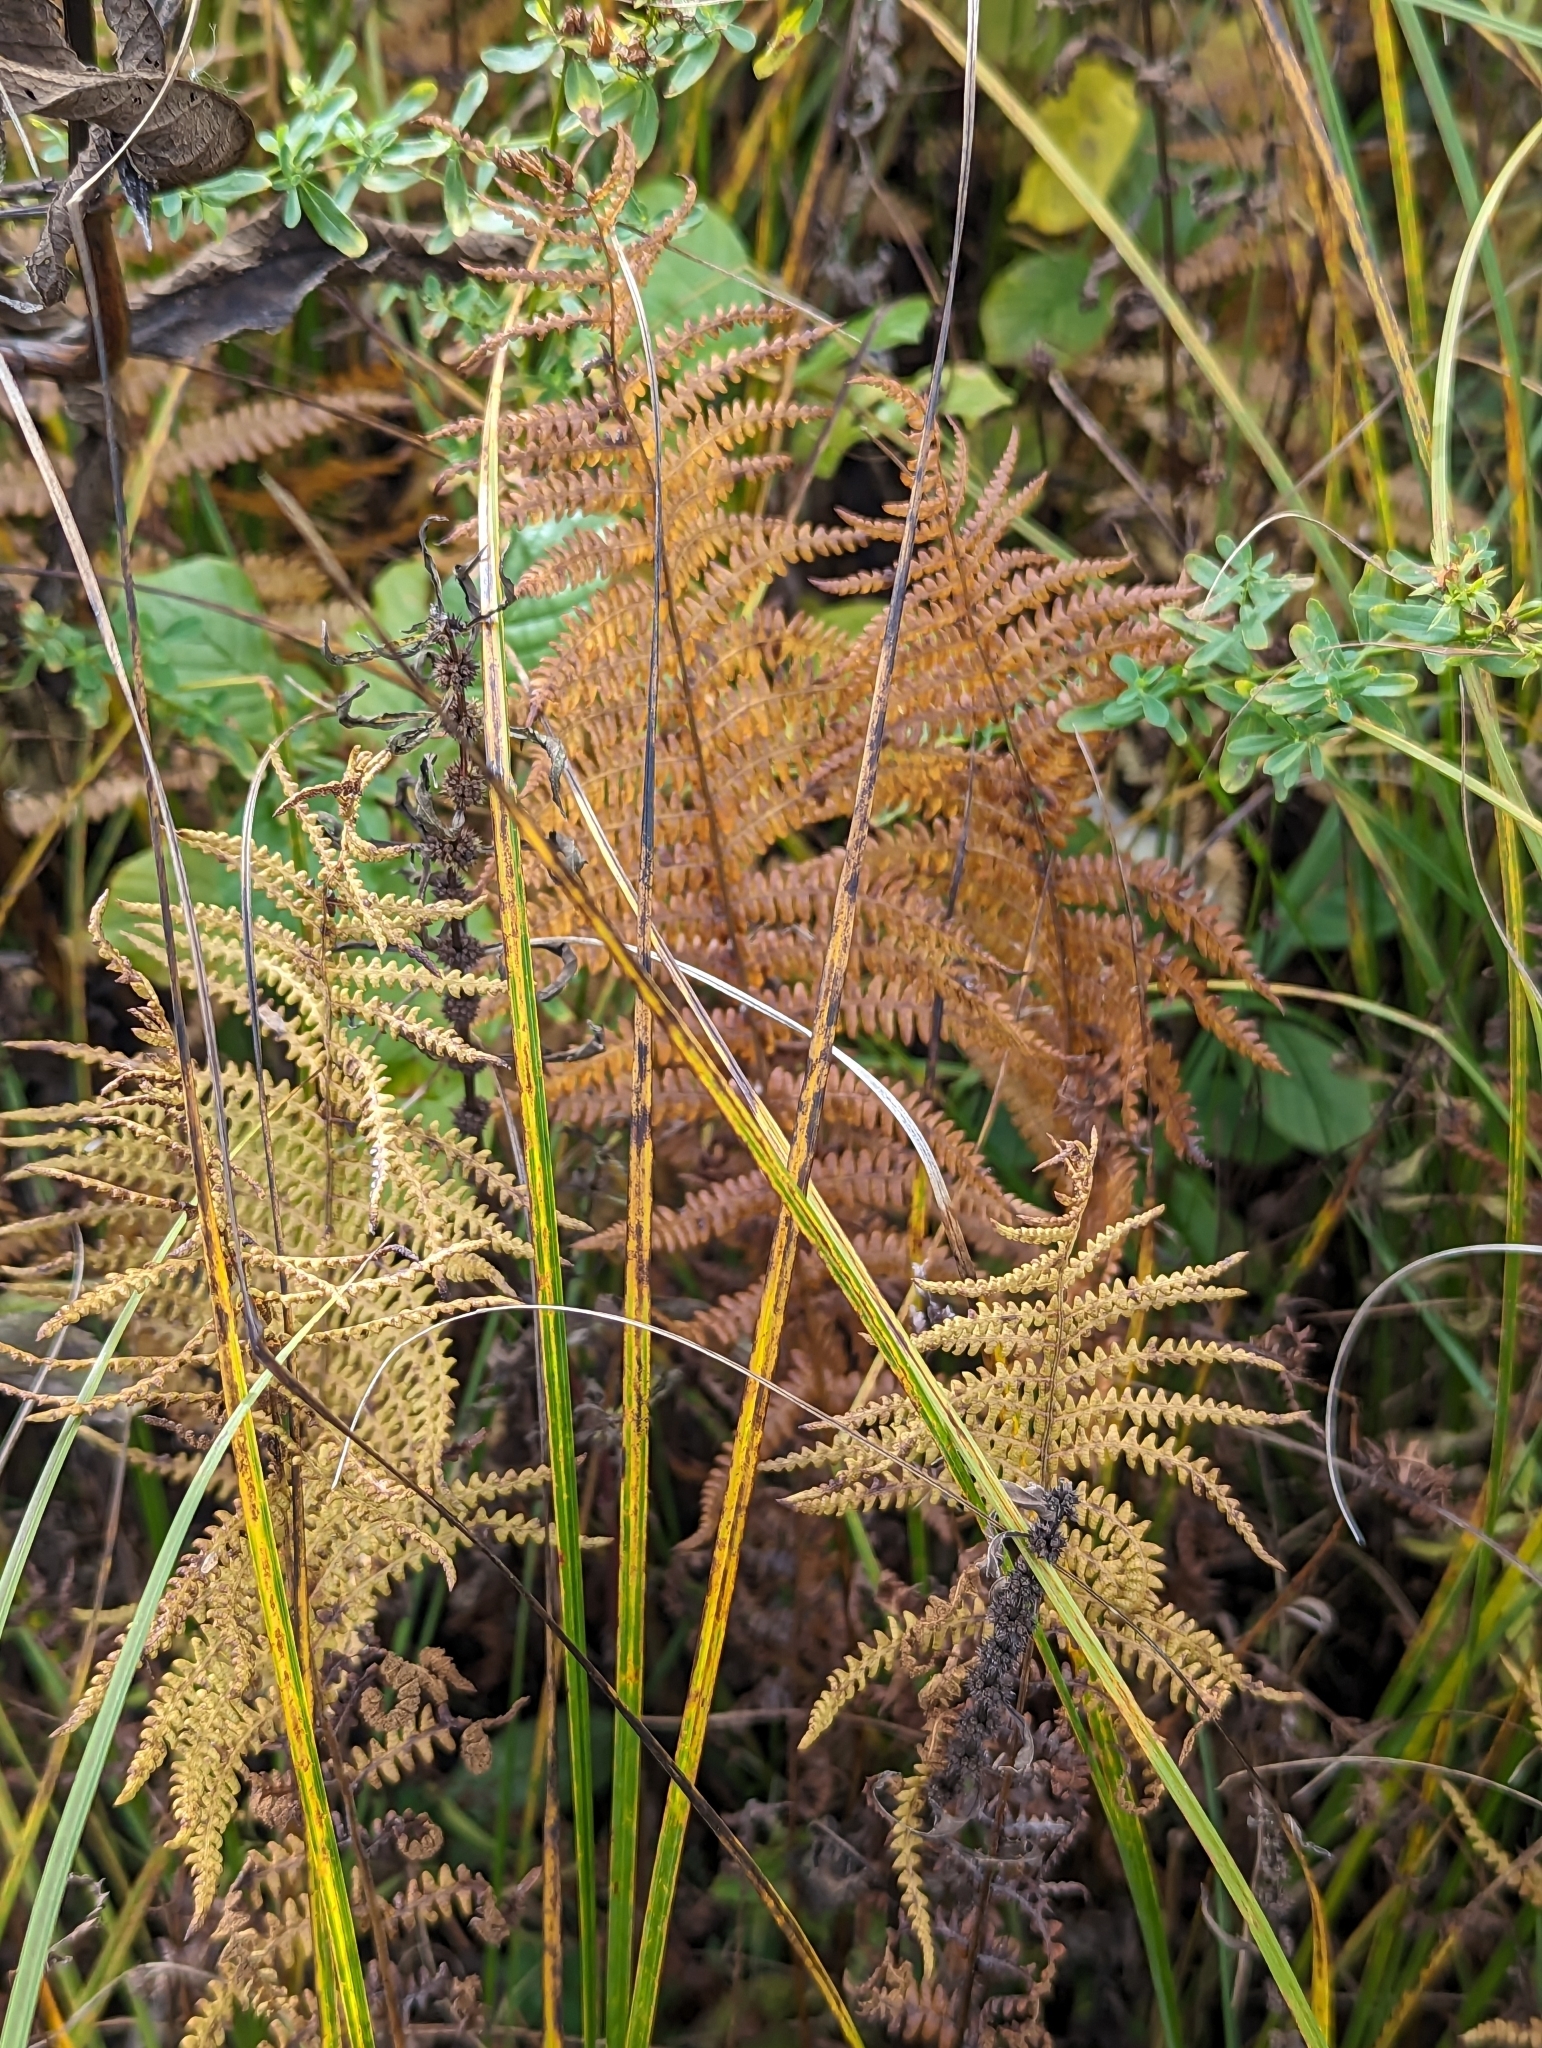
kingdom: Plantae
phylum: Tracheophyta
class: Polypodiopsida
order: Polypodiales
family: Thelypteridaceae
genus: Thelypteris
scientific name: Thelypteris palustris
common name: Marsh fern
